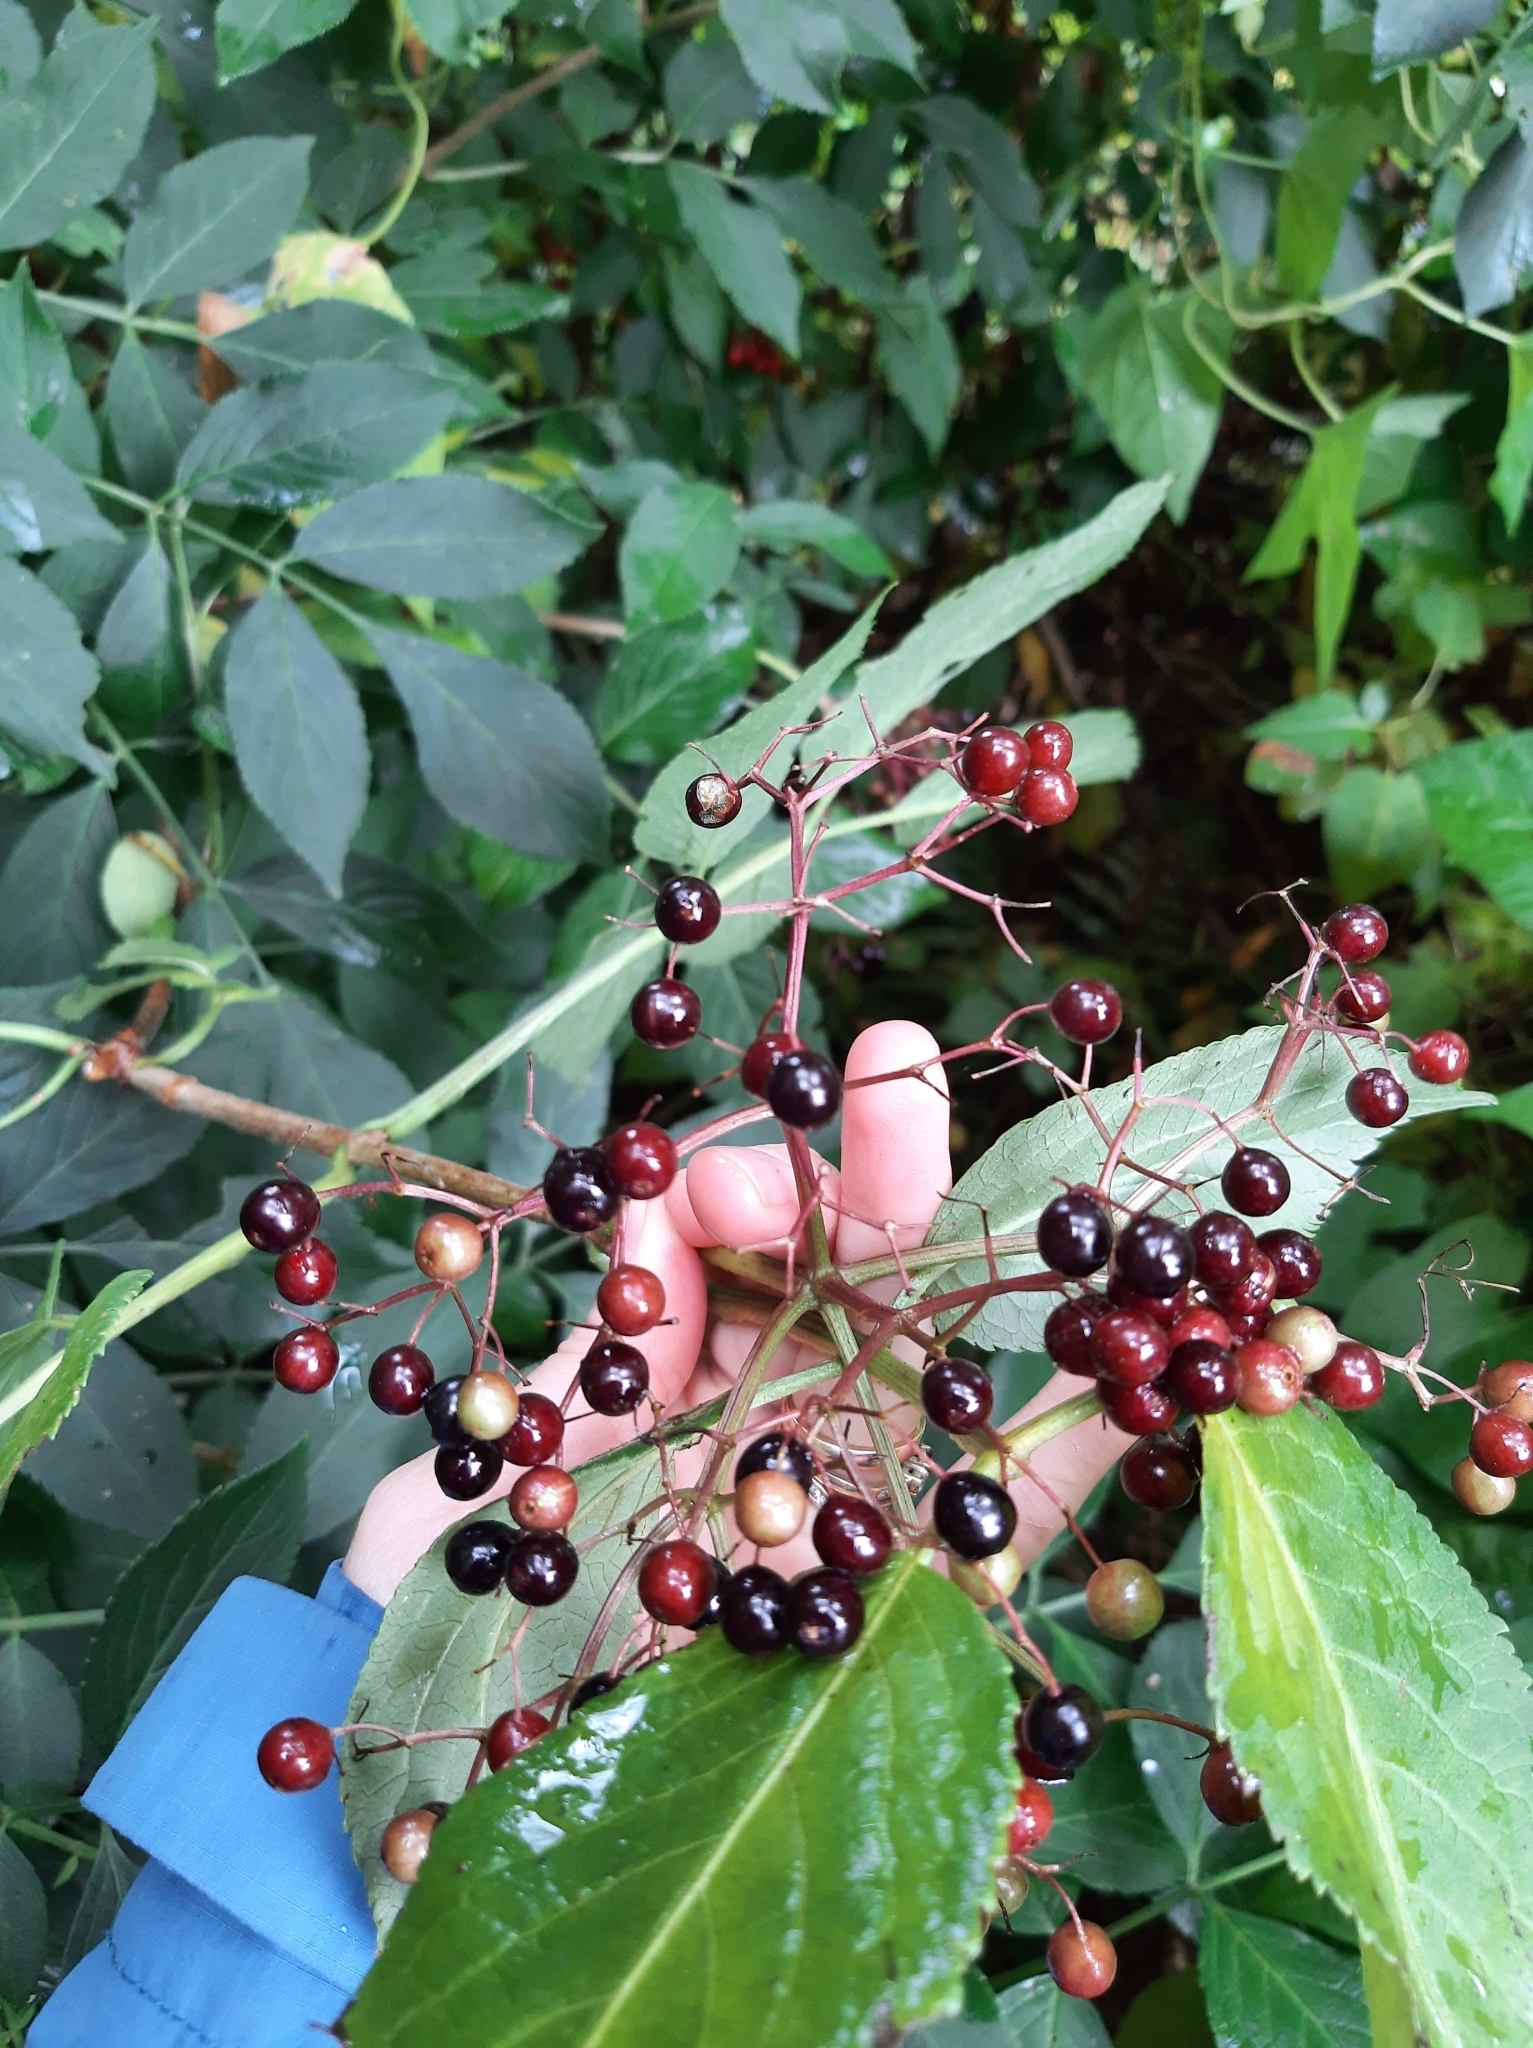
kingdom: Plantae
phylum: Tracheophyta
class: Magnoliopsida
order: Dipsacales
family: Viburnaceae
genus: Sambucus
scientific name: Sambucus nigra
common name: Elder
